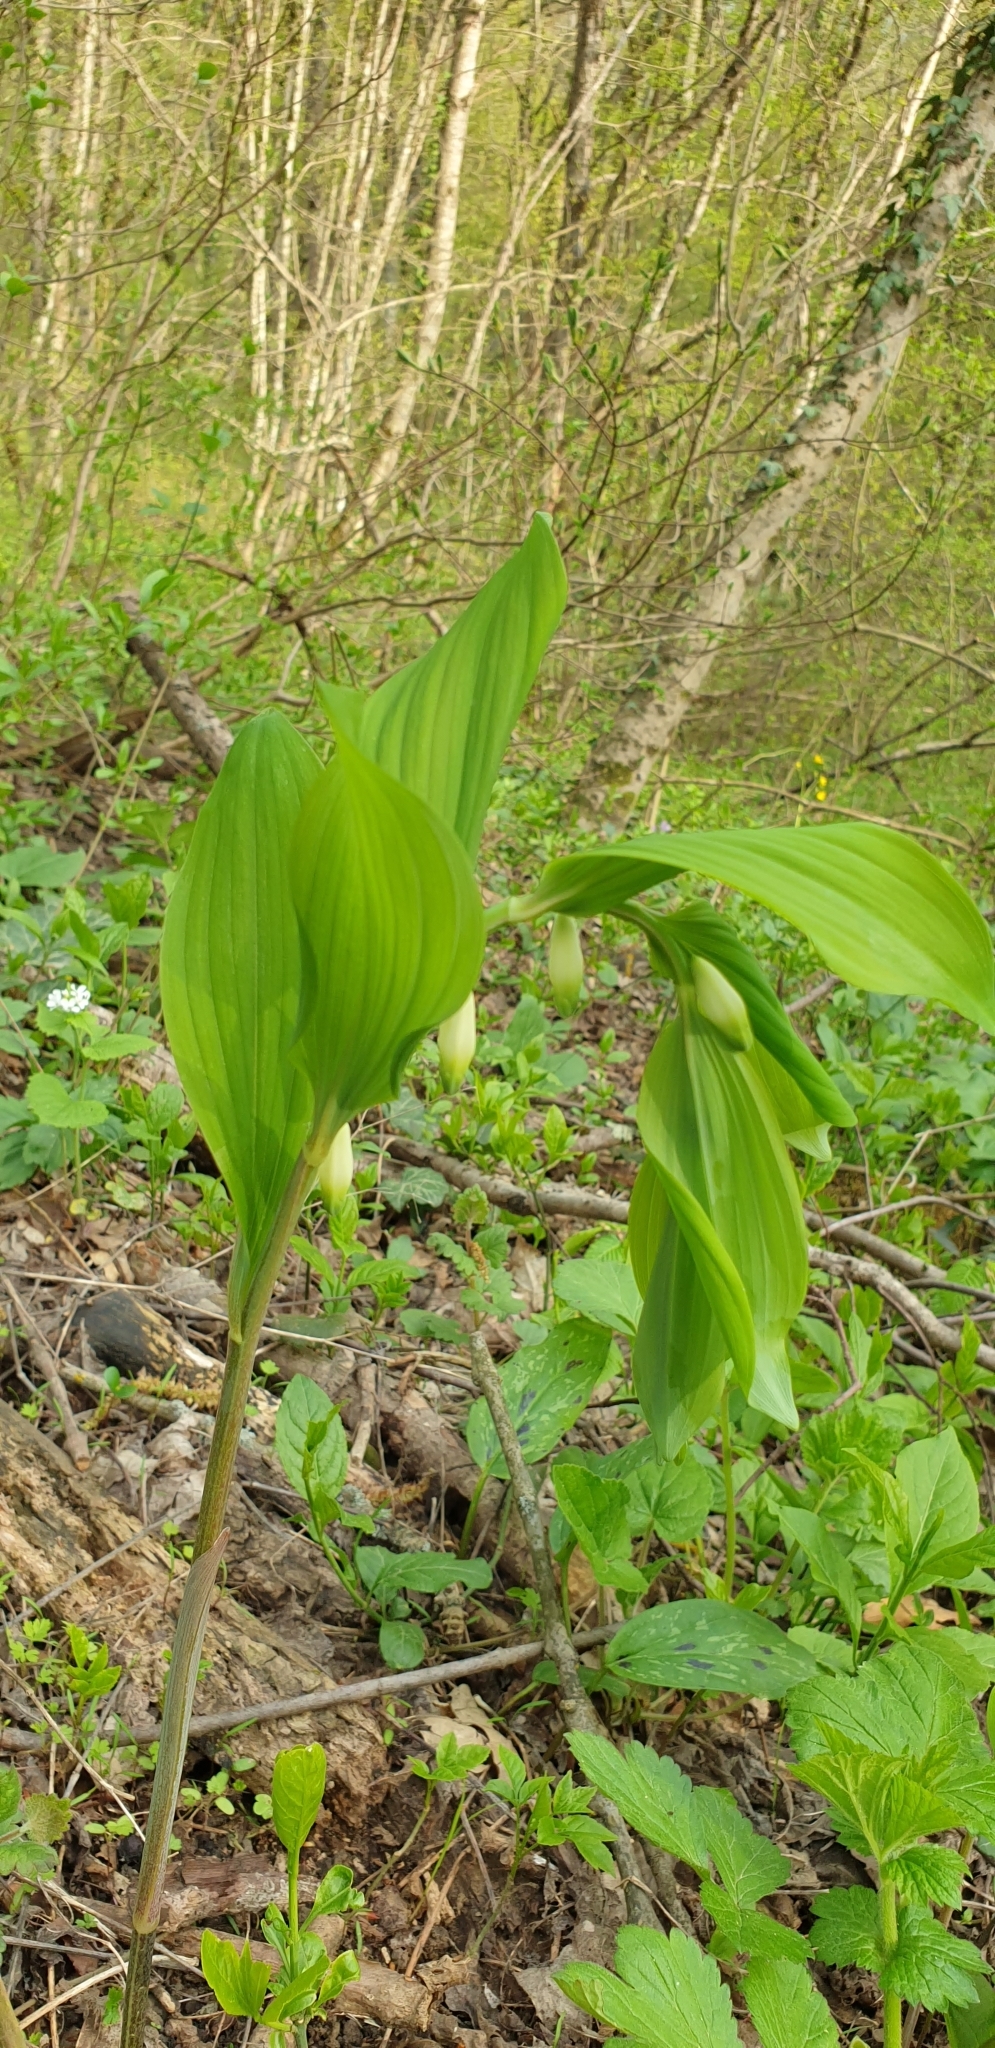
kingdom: Plantae
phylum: Tracheophyta
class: Liliopsida
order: Asparagales
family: Asparagaceae
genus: Polygonatum
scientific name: Polygonatum odoratum
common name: Angular solomon's-seal
